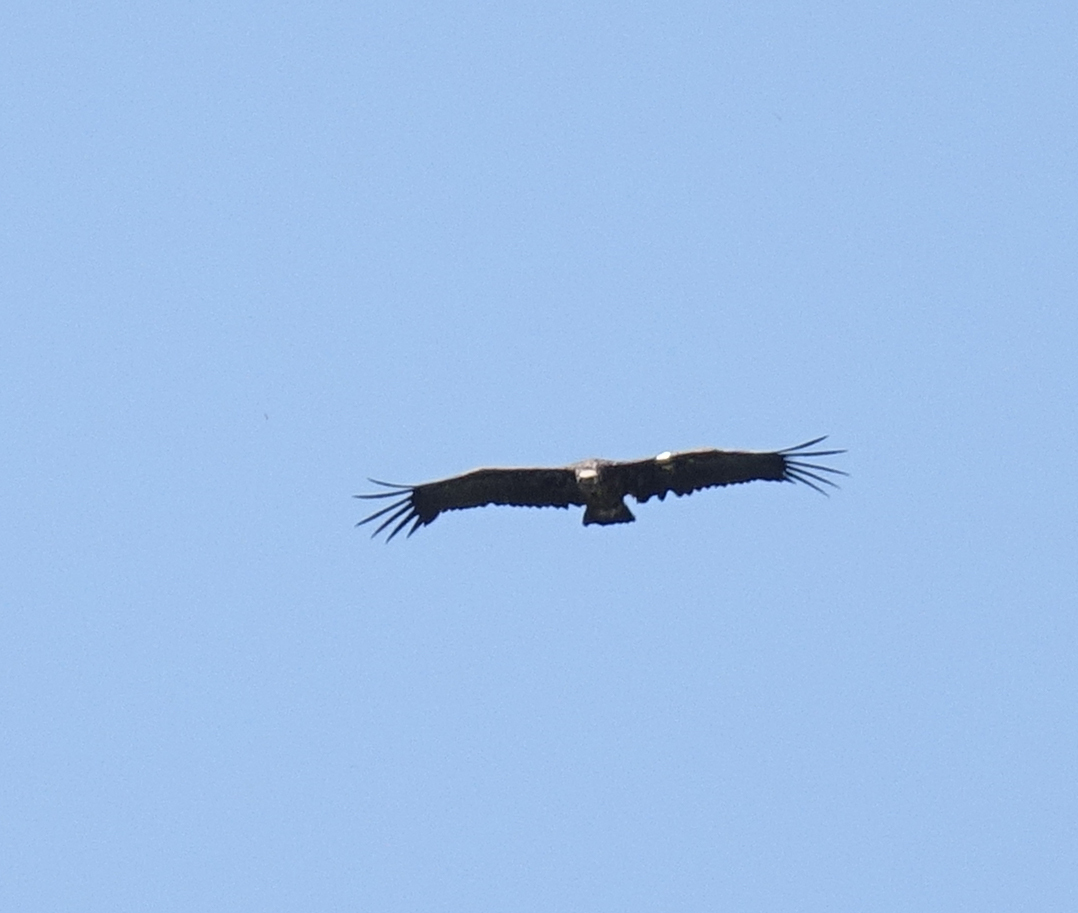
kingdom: Animalia
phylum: Chordata
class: Aves
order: Accipitriformes
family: Accipitridae
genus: Aegypius
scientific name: Aegypius monachus
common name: Cinereous vulture
